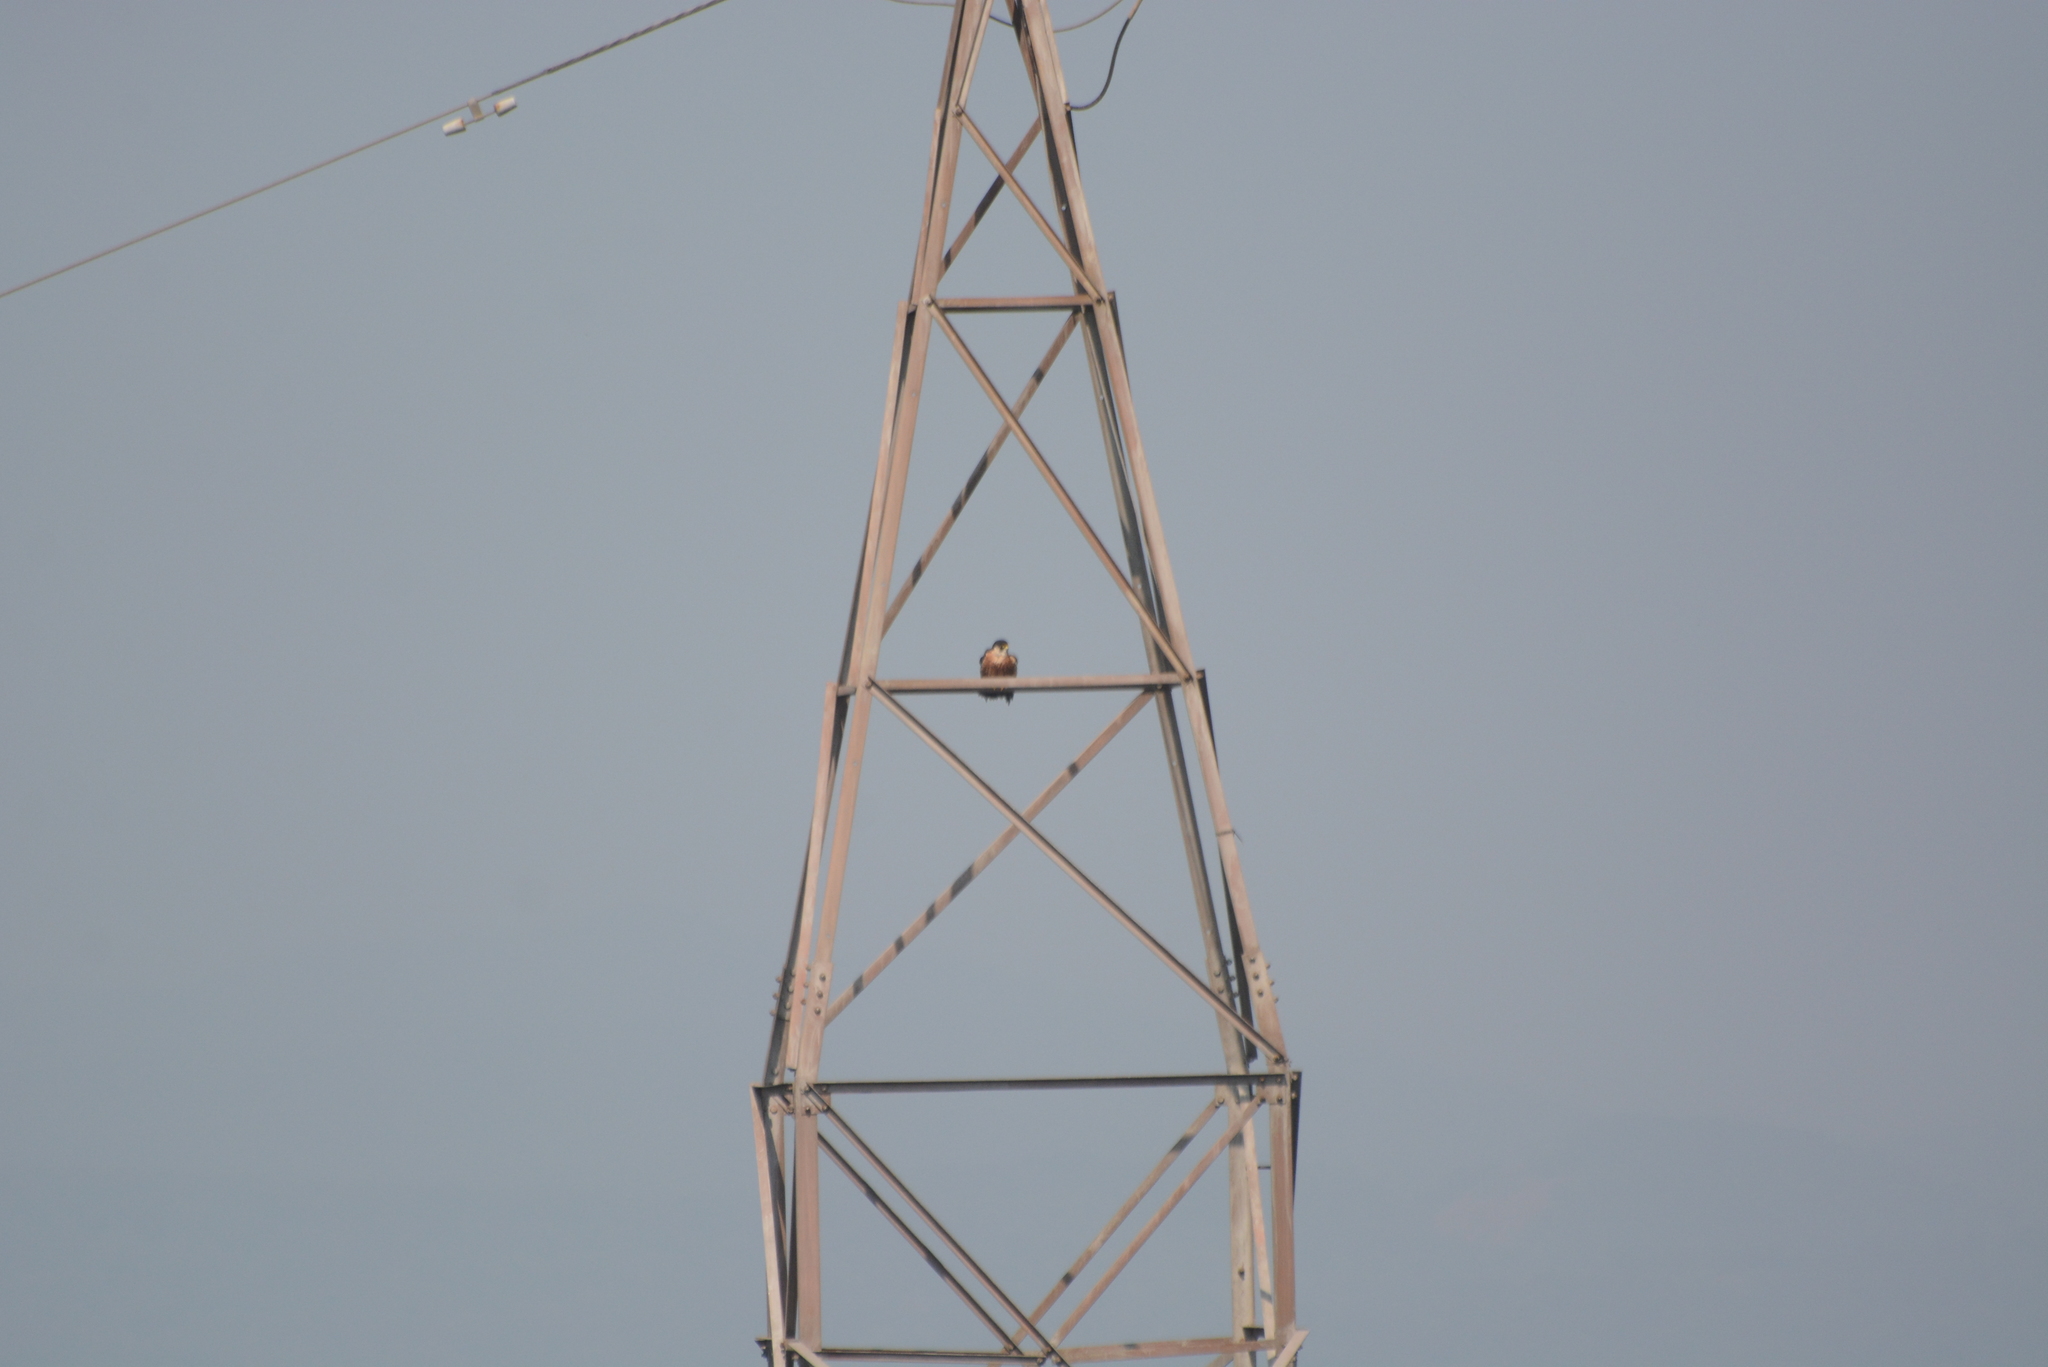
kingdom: Animalia
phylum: Chordata
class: Aves
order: Falconiformes
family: Falconidae
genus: Falco
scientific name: Falco peregrinus
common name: Peregrine falcon
